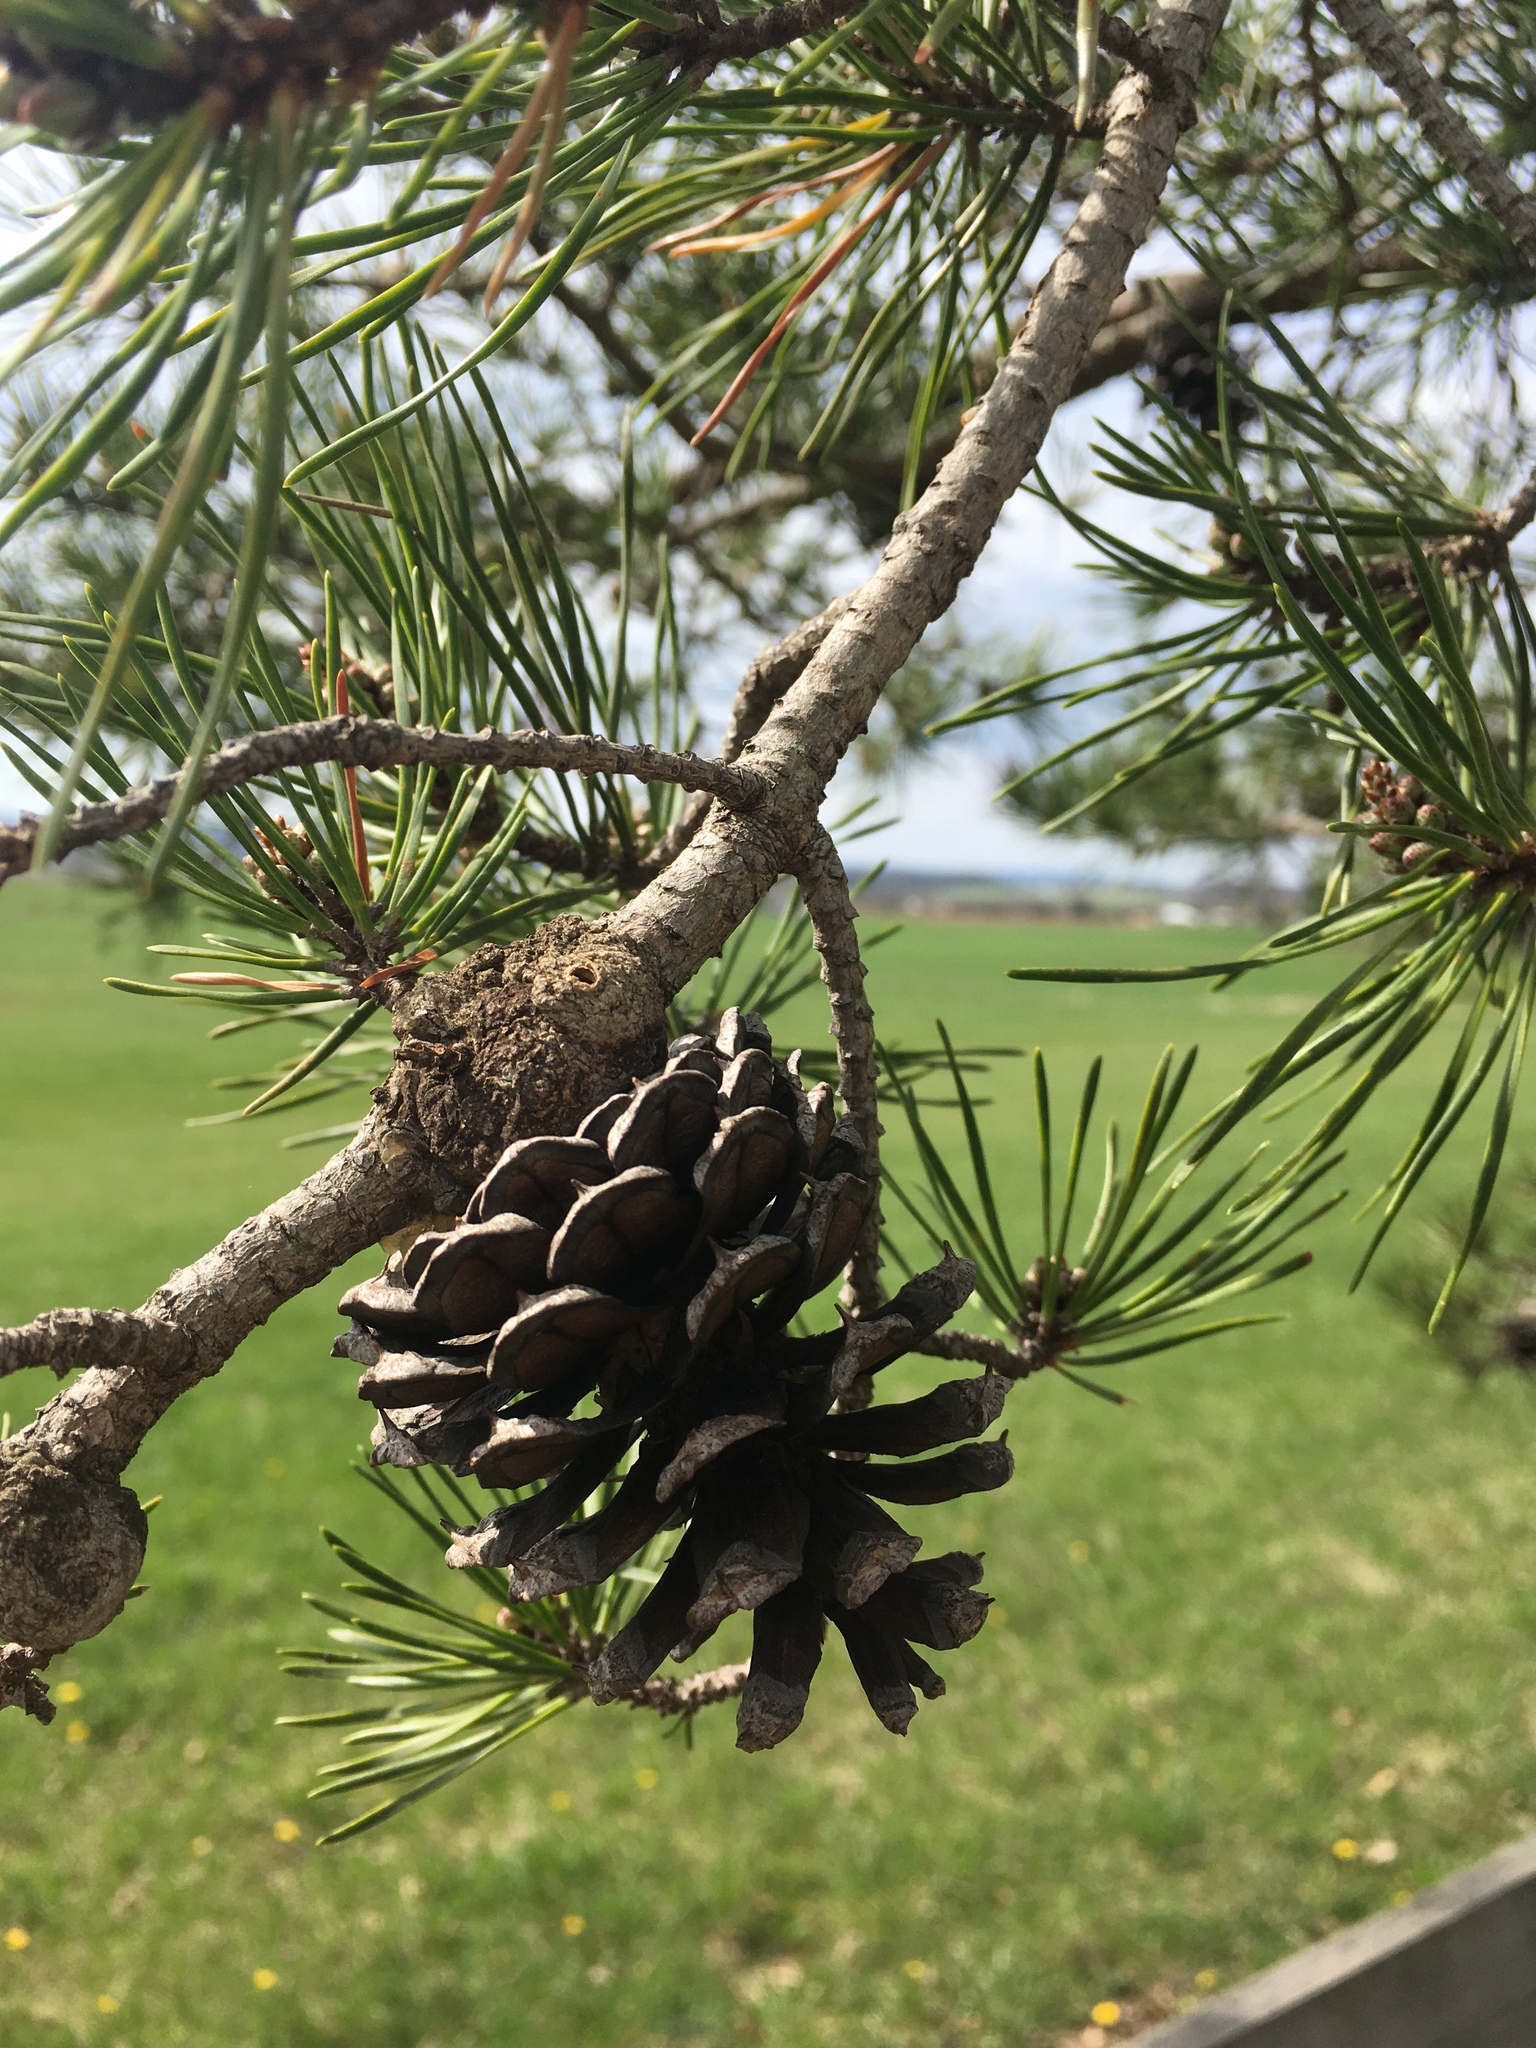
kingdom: Plantae
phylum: Tracheophyta
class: Pinopsida
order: Pinales
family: Pinaceae
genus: Pinus
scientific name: Pinus virginiana
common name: Scrub pine
